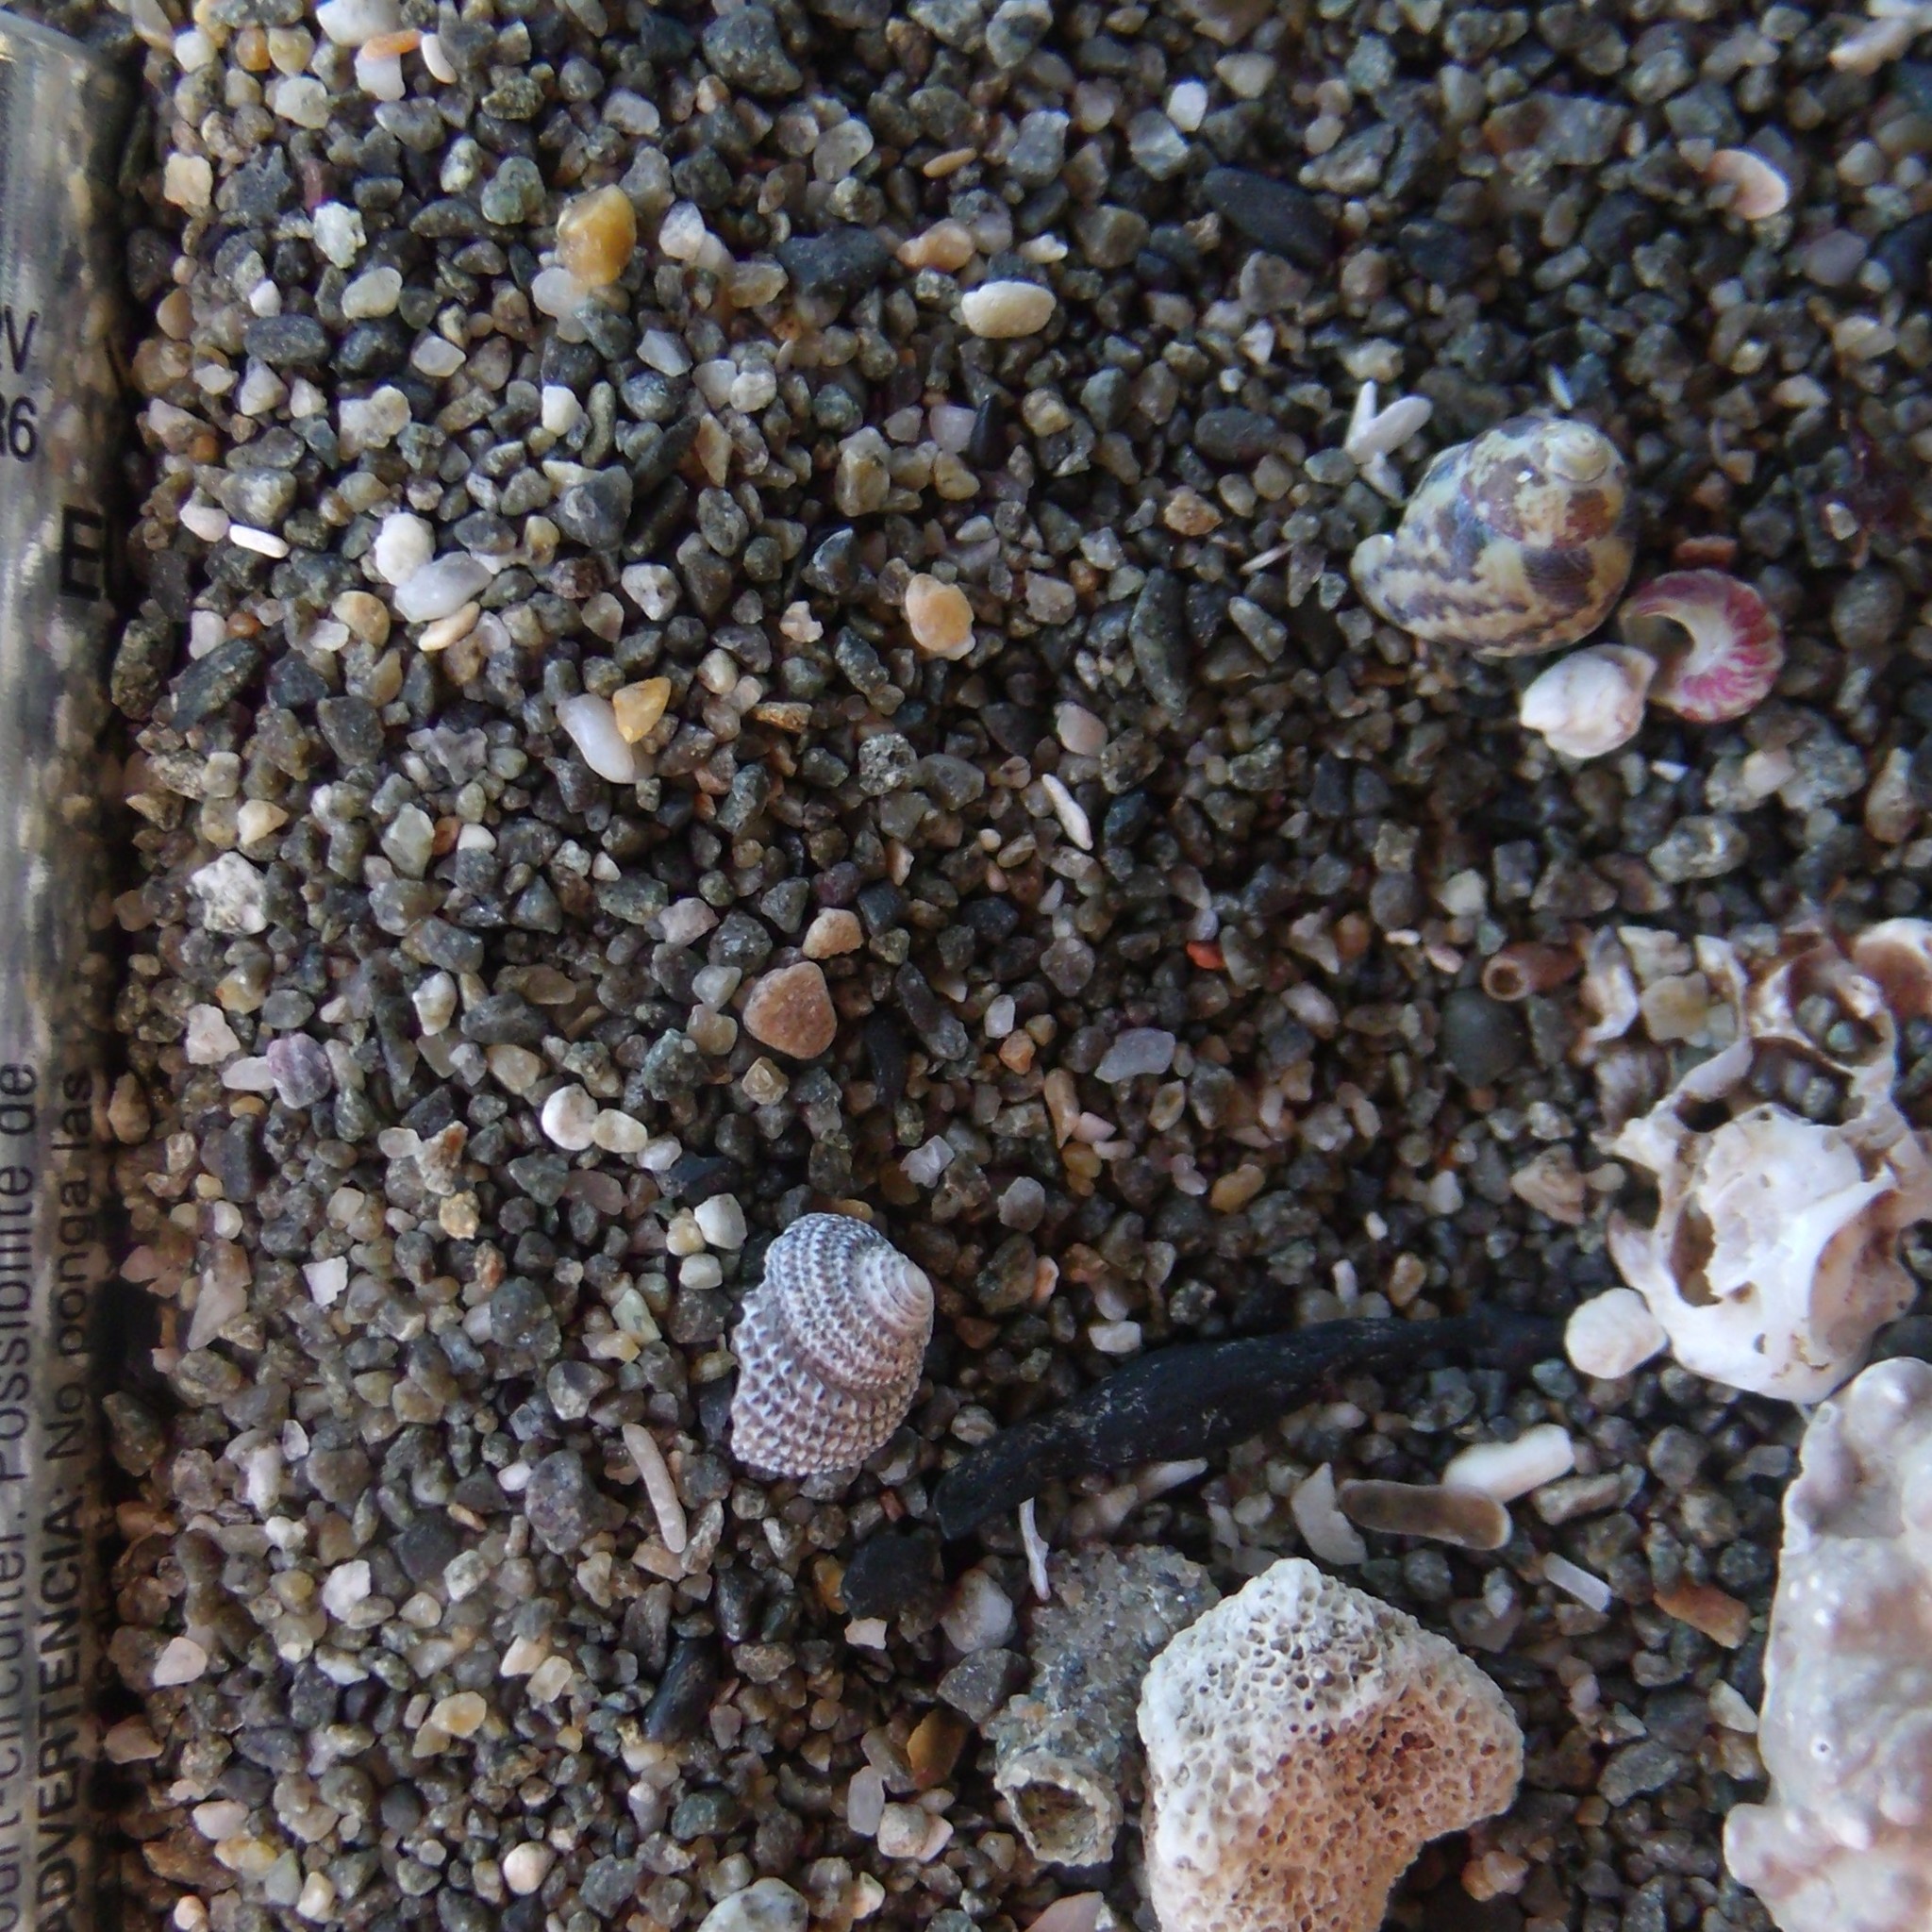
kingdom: Animalia
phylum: Mollusca
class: Gastropoda
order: Trochida
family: Trochidae
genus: Micrelenchus
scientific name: Micrelenchus tessellatus
